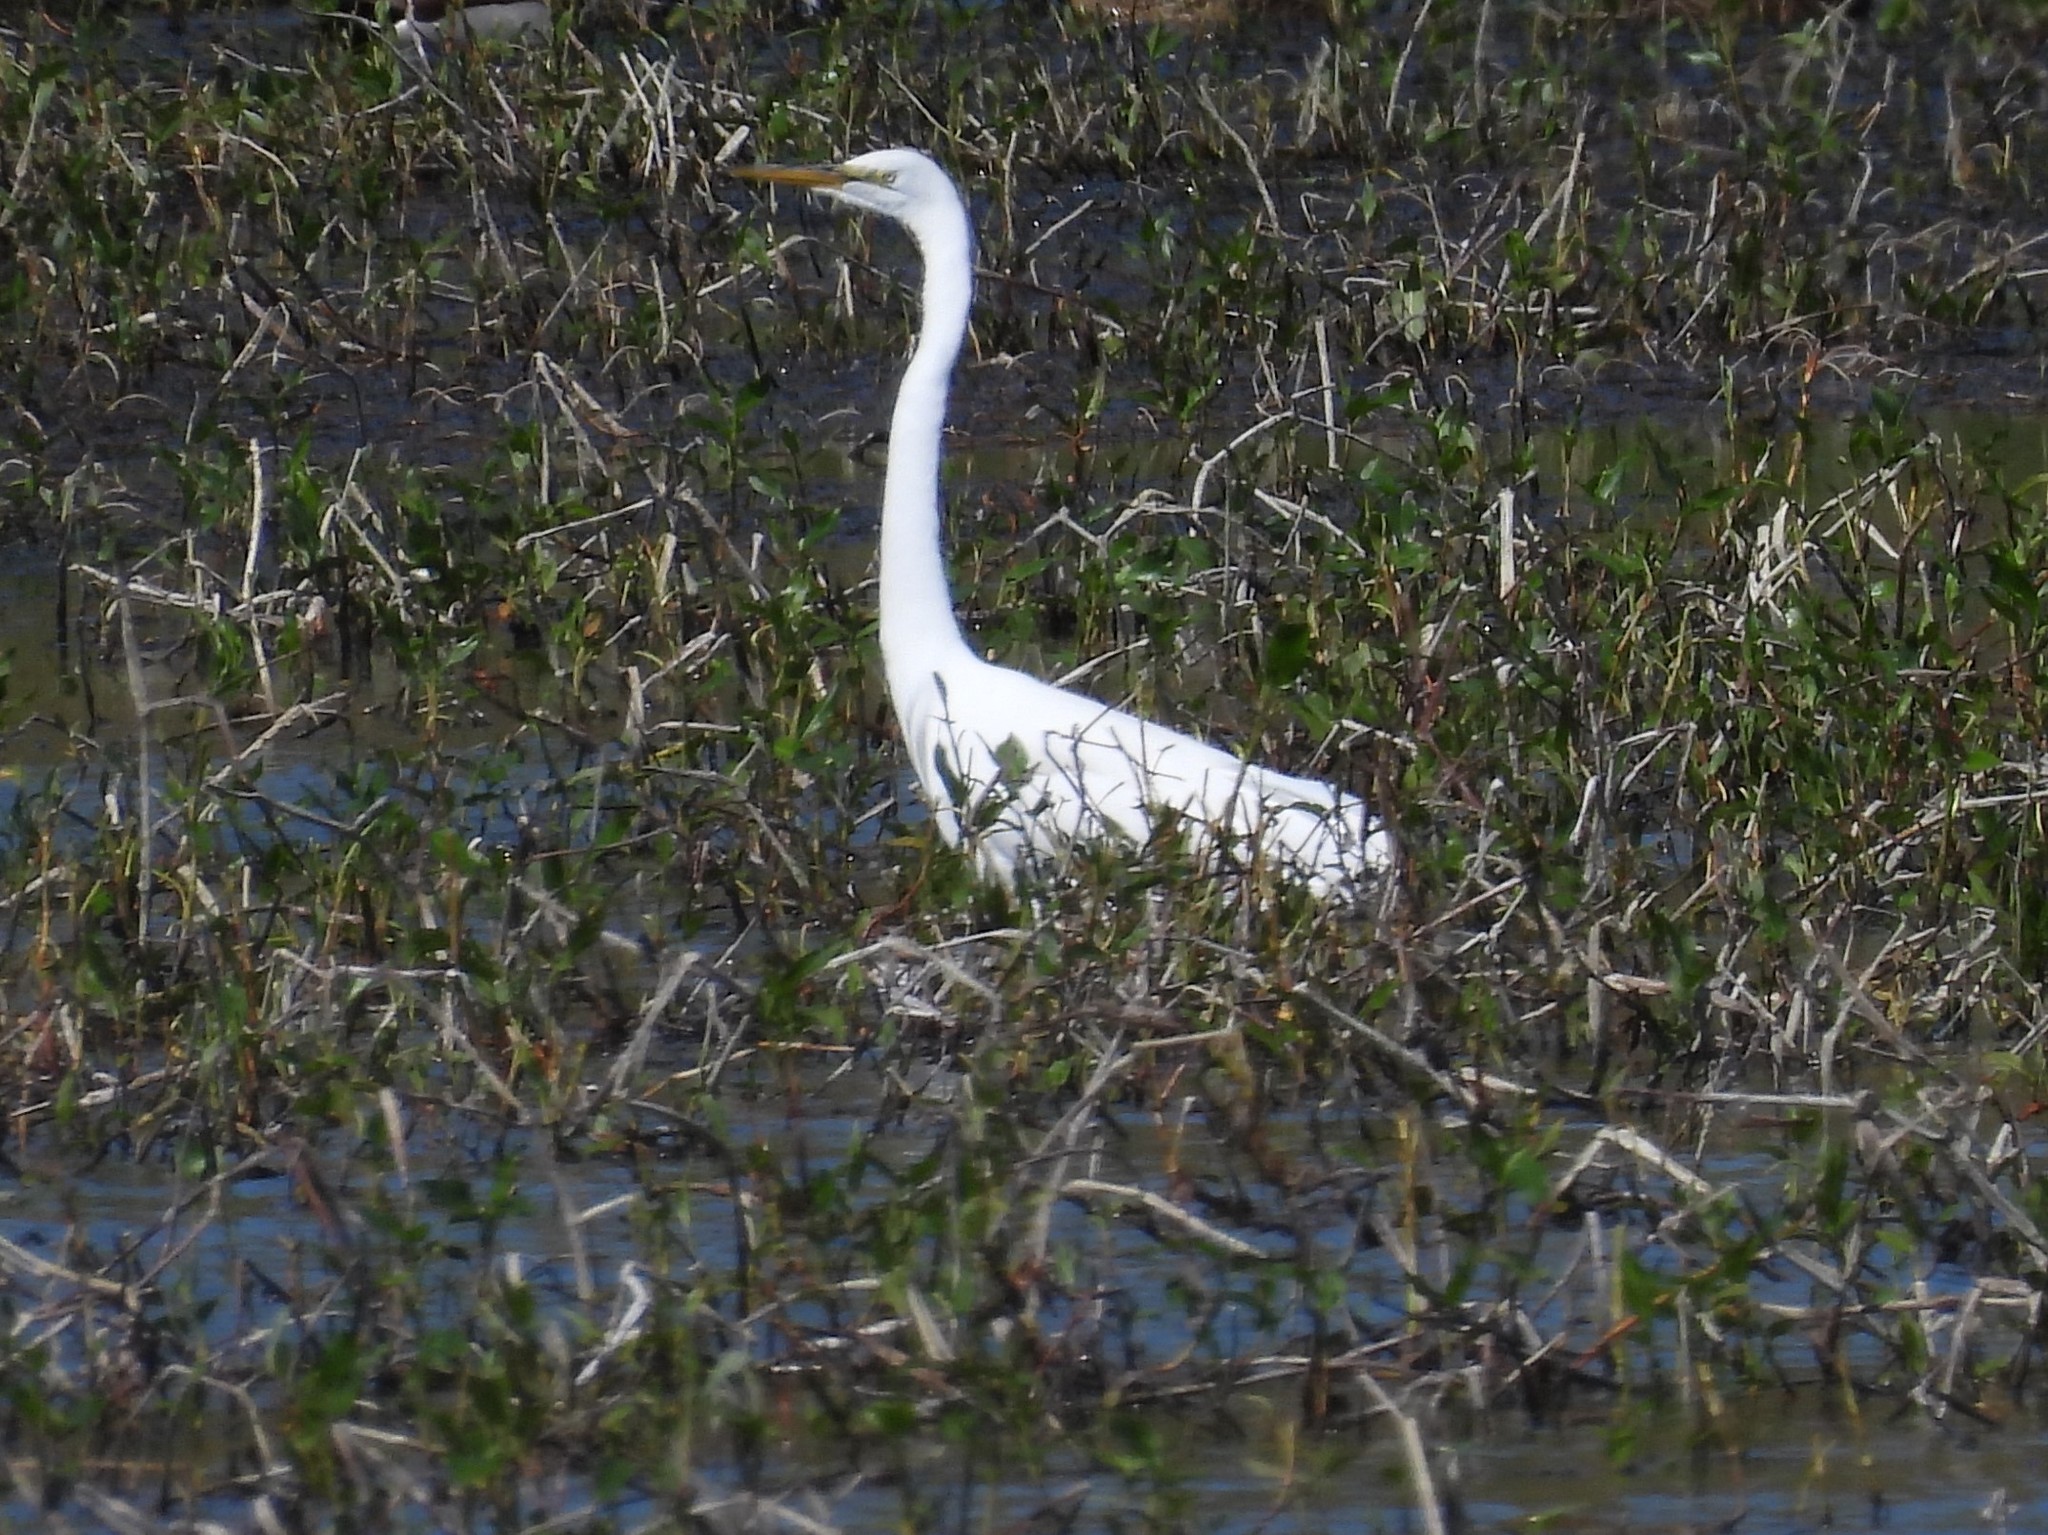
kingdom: Animalia
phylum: Chordata
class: Aves
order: Pelecaniformes
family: Ardeidae
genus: Ardea
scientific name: Ardea alba
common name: Great egret
